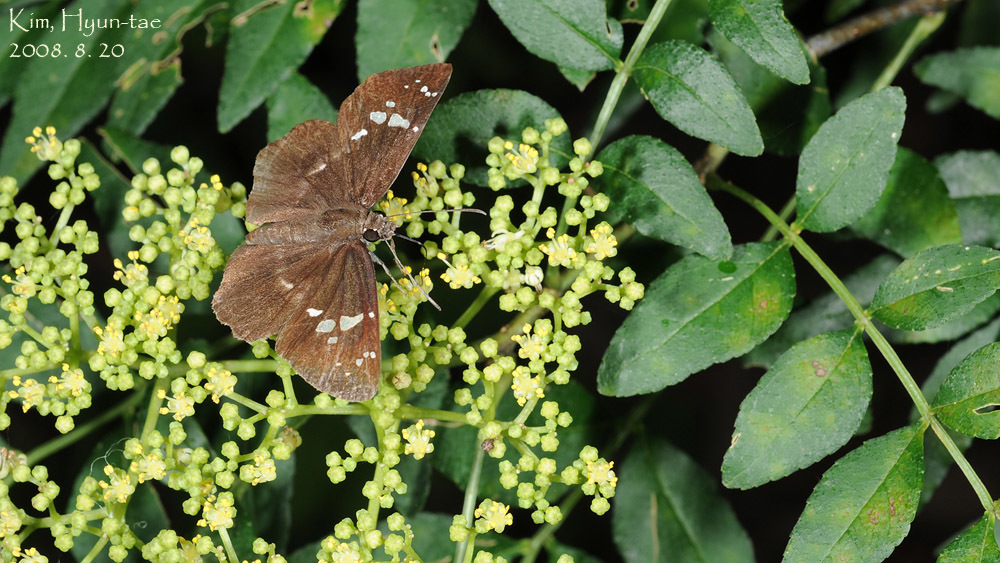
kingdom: Animalia
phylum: Arthropoda
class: Insecta
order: Lepidoptera
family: Hesperiidae
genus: Daimio
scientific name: Daimio tethys
